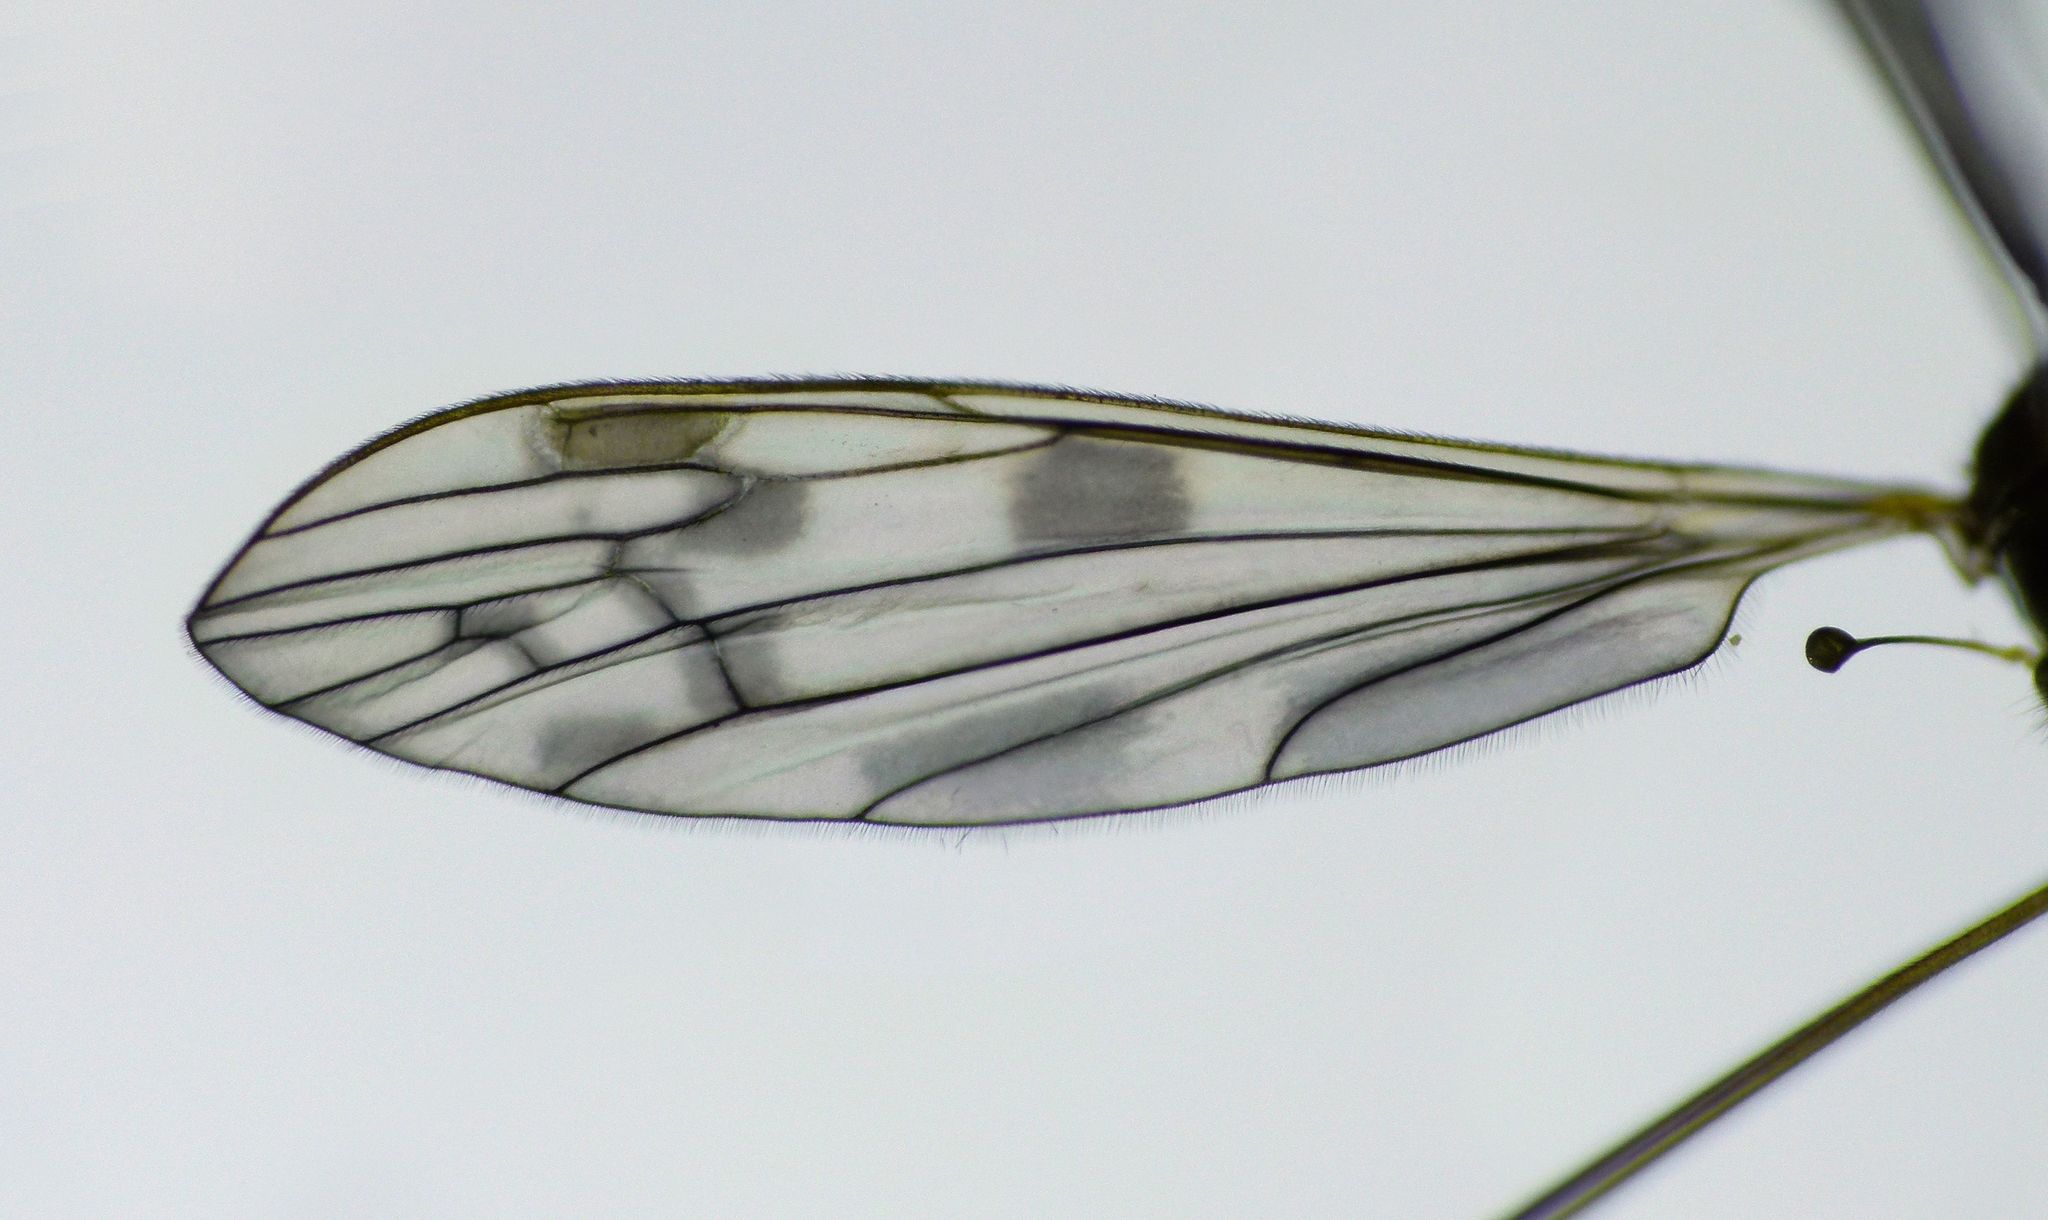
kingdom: Animalia
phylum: Arthropoda
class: Insecta
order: Diptera
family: Limoniidae
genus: Libnotes
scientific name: Libnotes falcata
